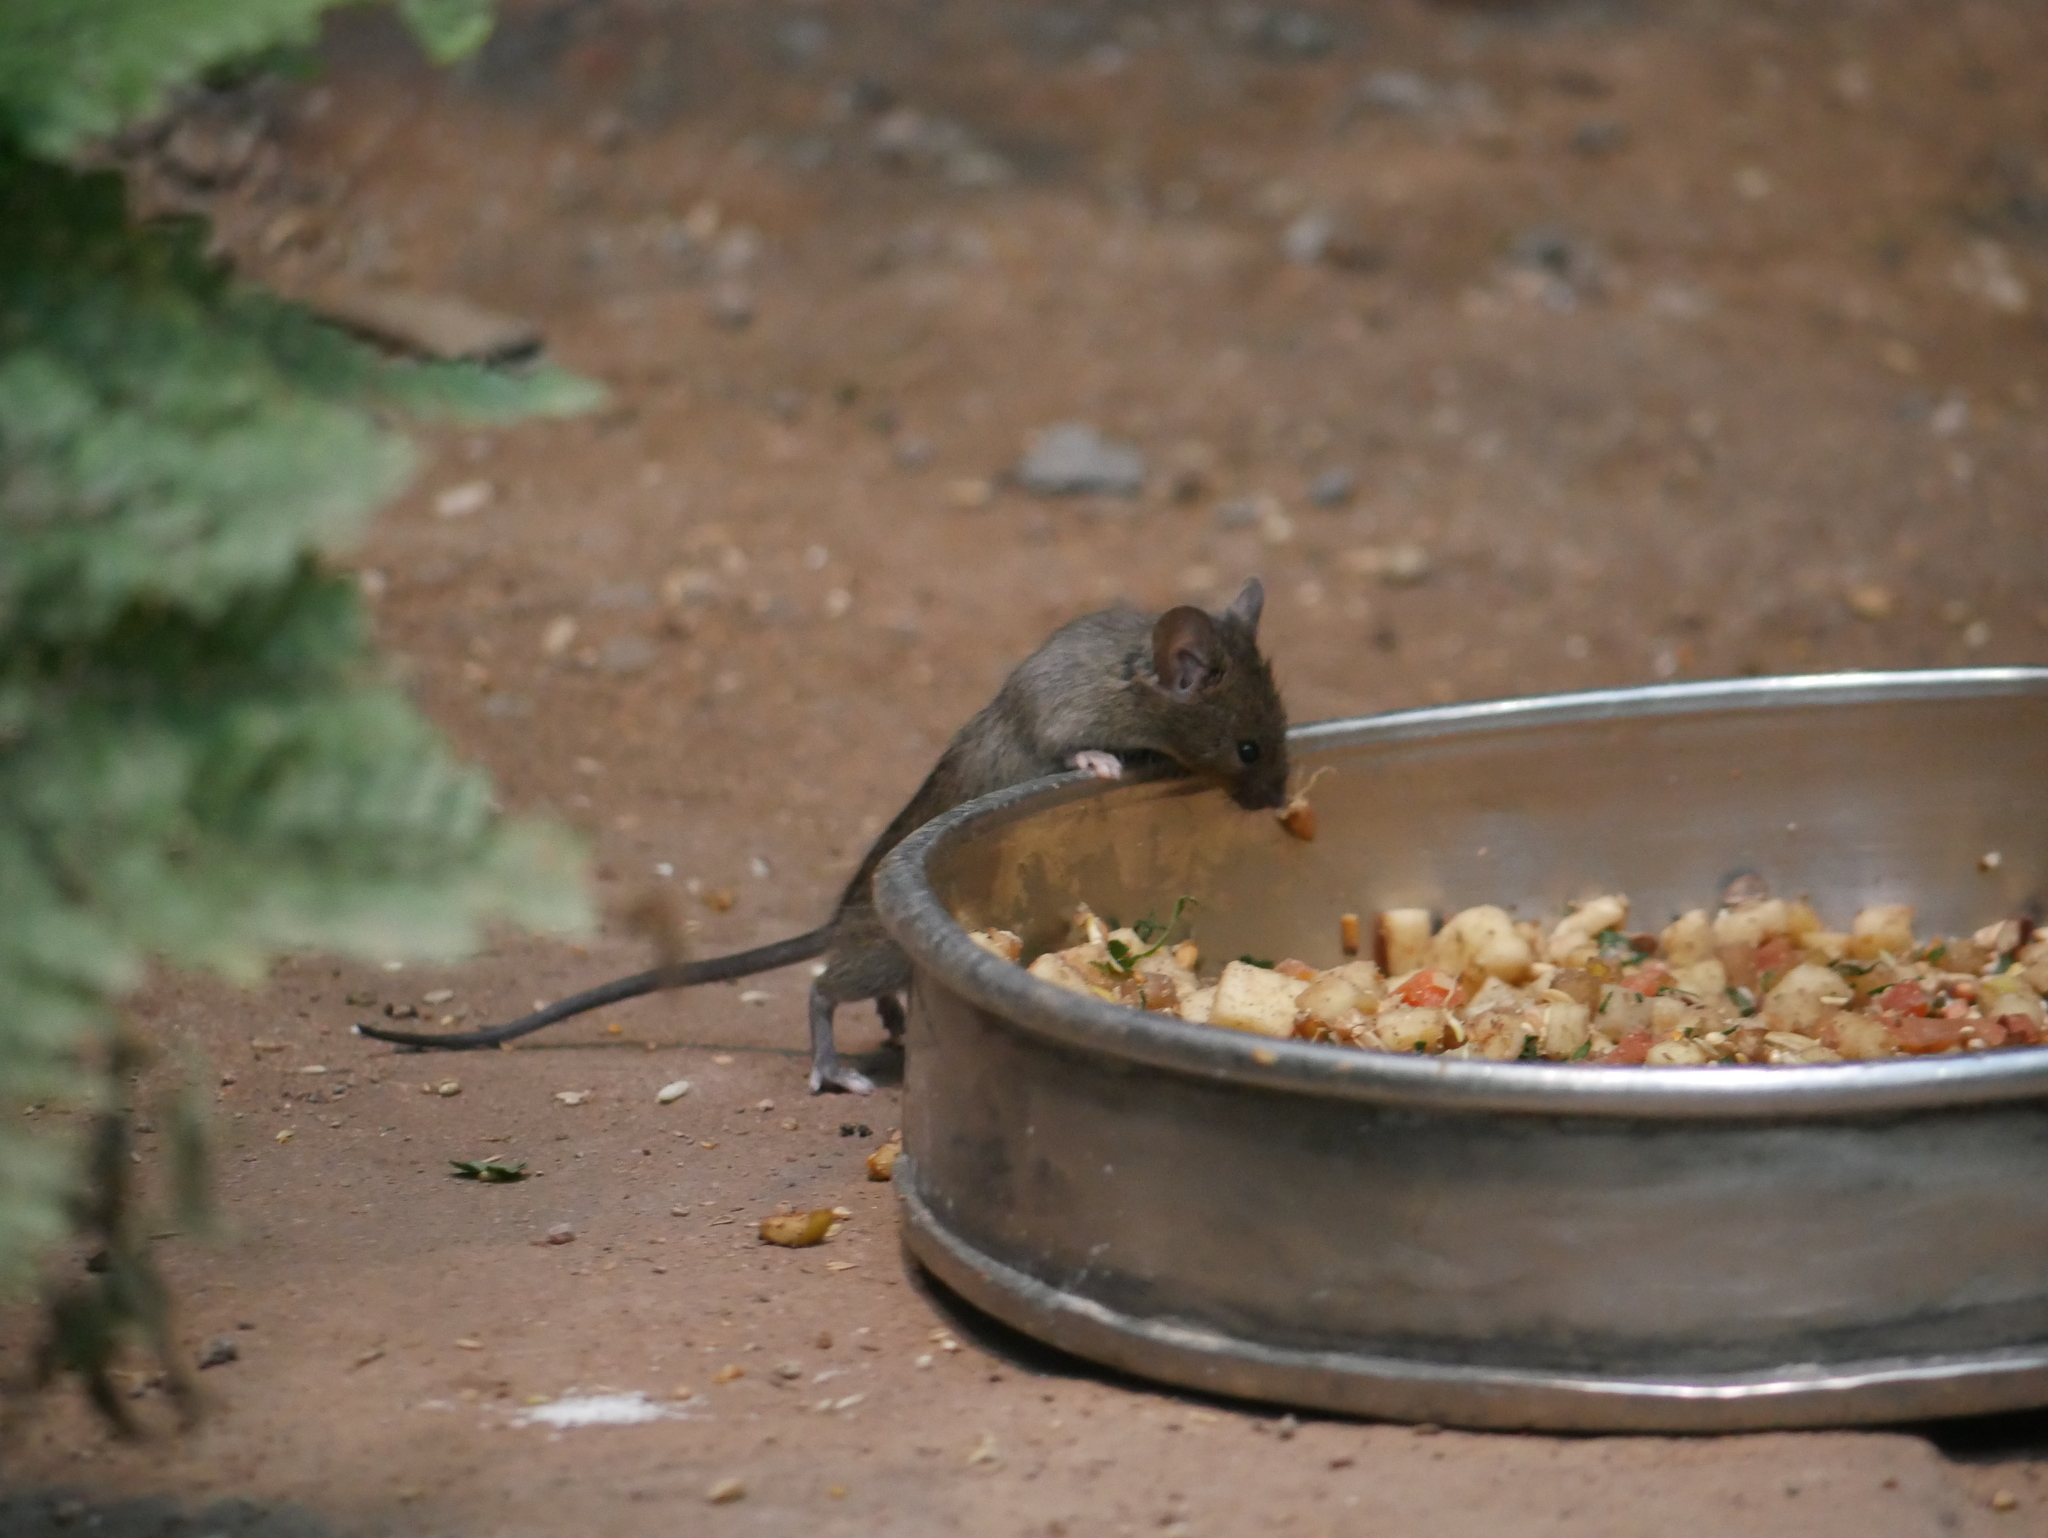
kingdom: Animalia
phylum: Chordata
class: Mammalia
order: Rodentia
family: Muridae
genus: Mus
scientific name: Mus musculus
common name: House mouse
